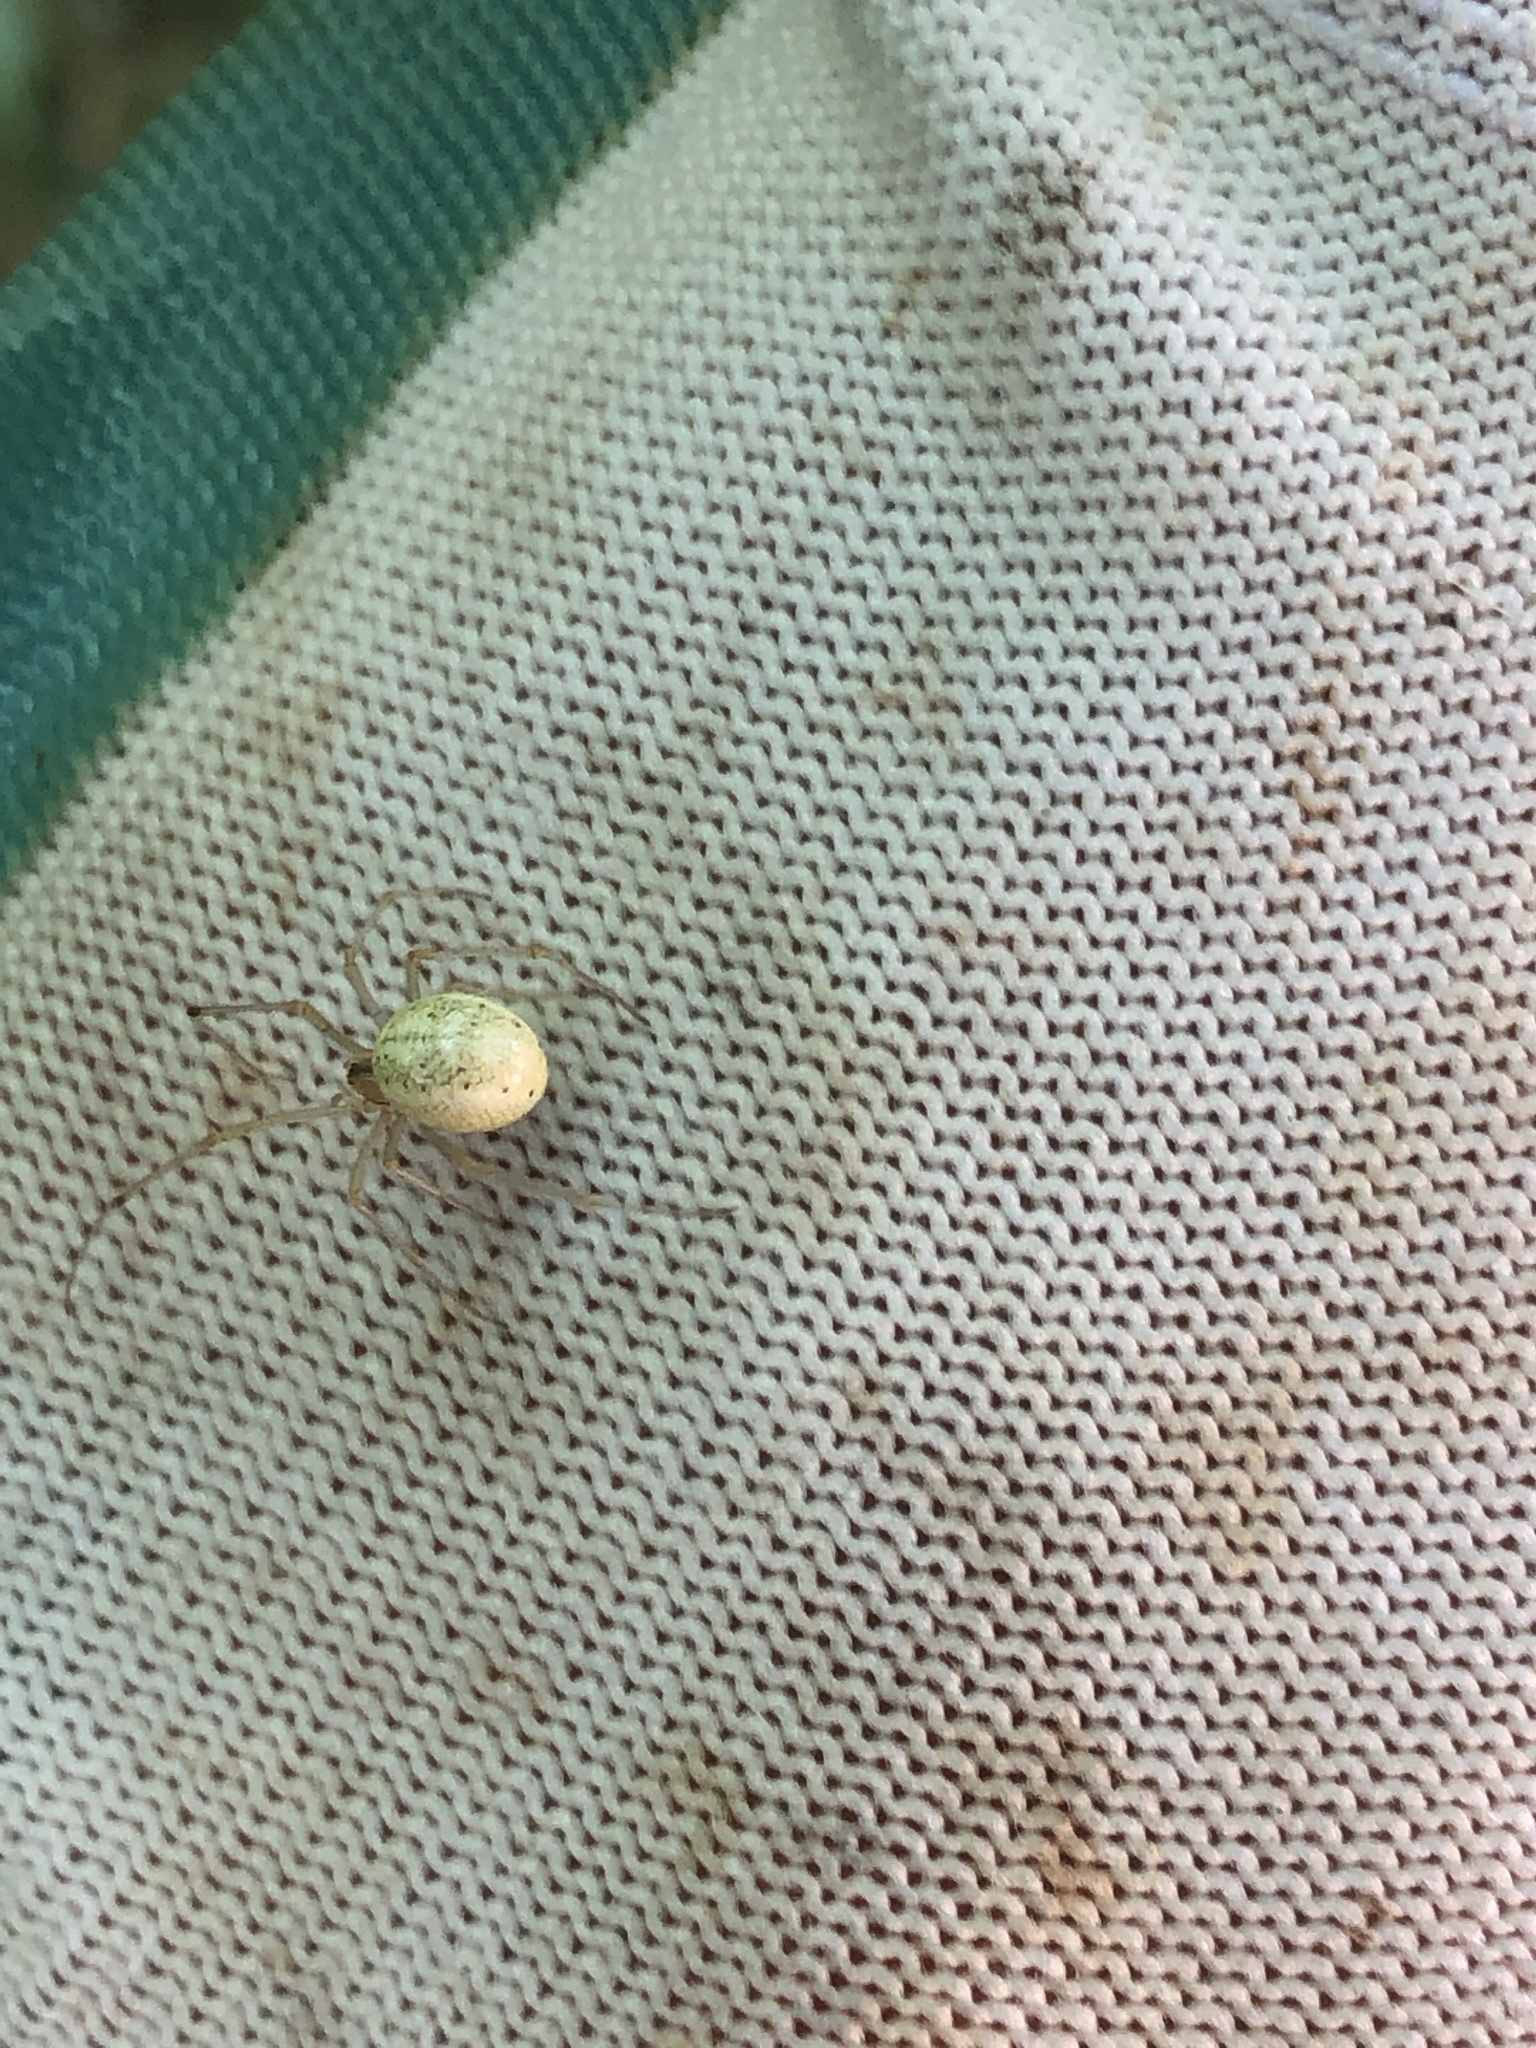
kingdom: Animalia
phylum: Arthropoda
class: Arachnida
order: Araneae
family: Theridiidae
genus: Enoplognatha
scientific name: Enoplognatha ovata
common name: Common candy-striped spider
